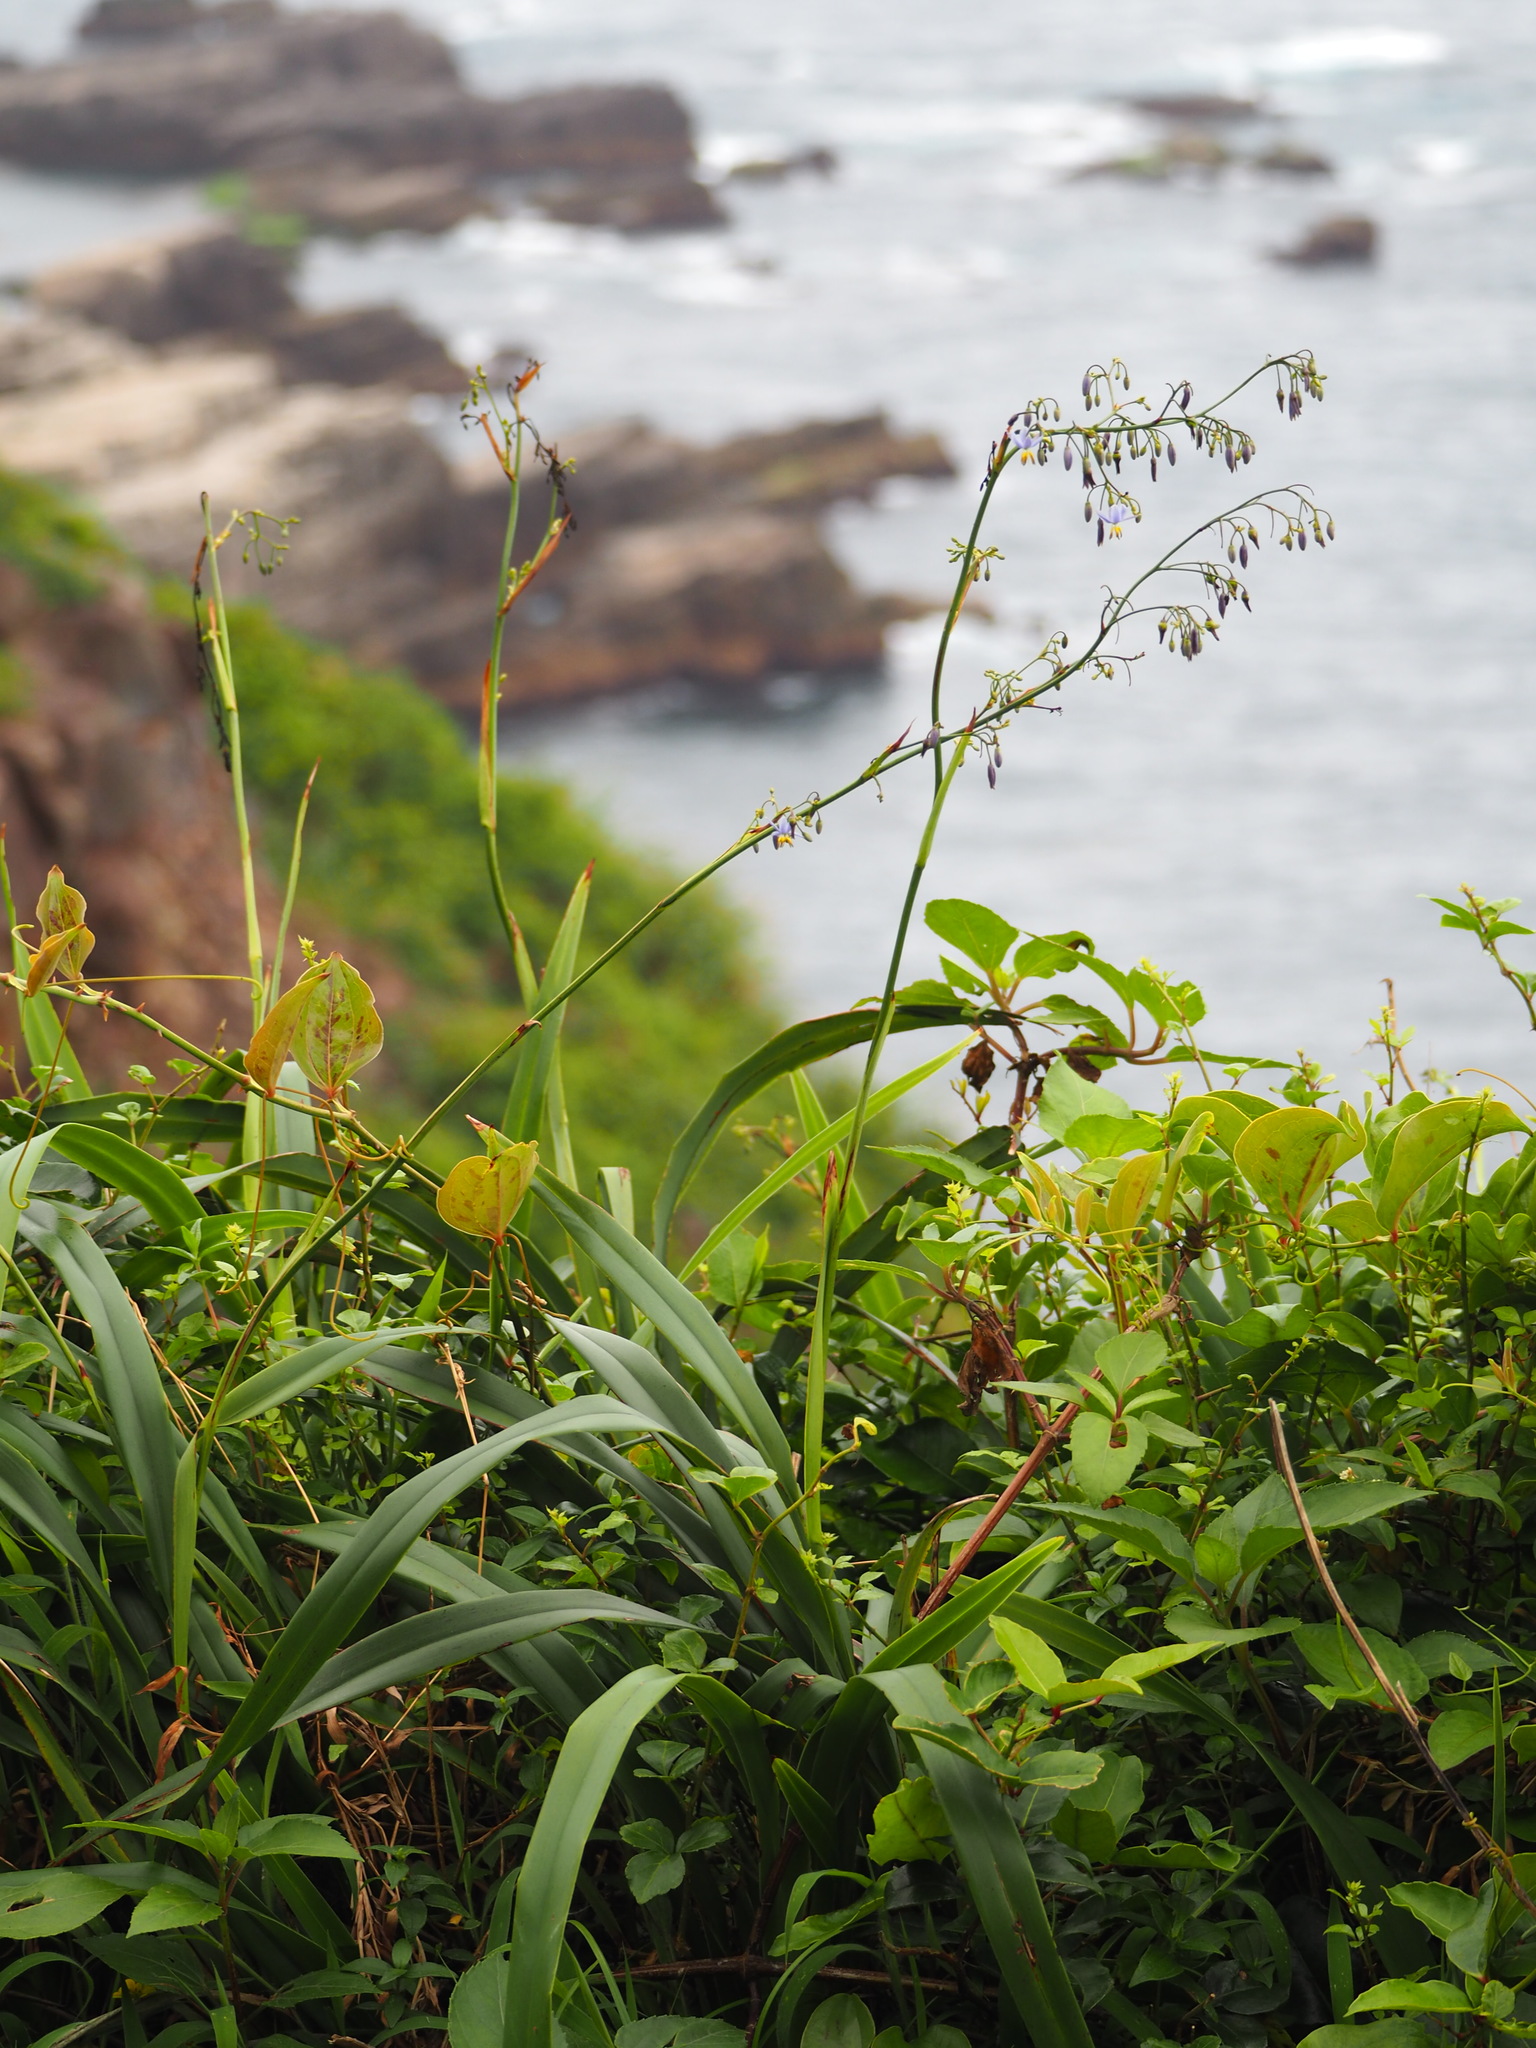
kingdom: Plantae
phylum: Tracheophyta
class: Liliopsida
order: Asparagales
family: Asphodelaceae
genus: Dianella
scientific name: Dianella ensifolia
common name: New zealand lilyplant
